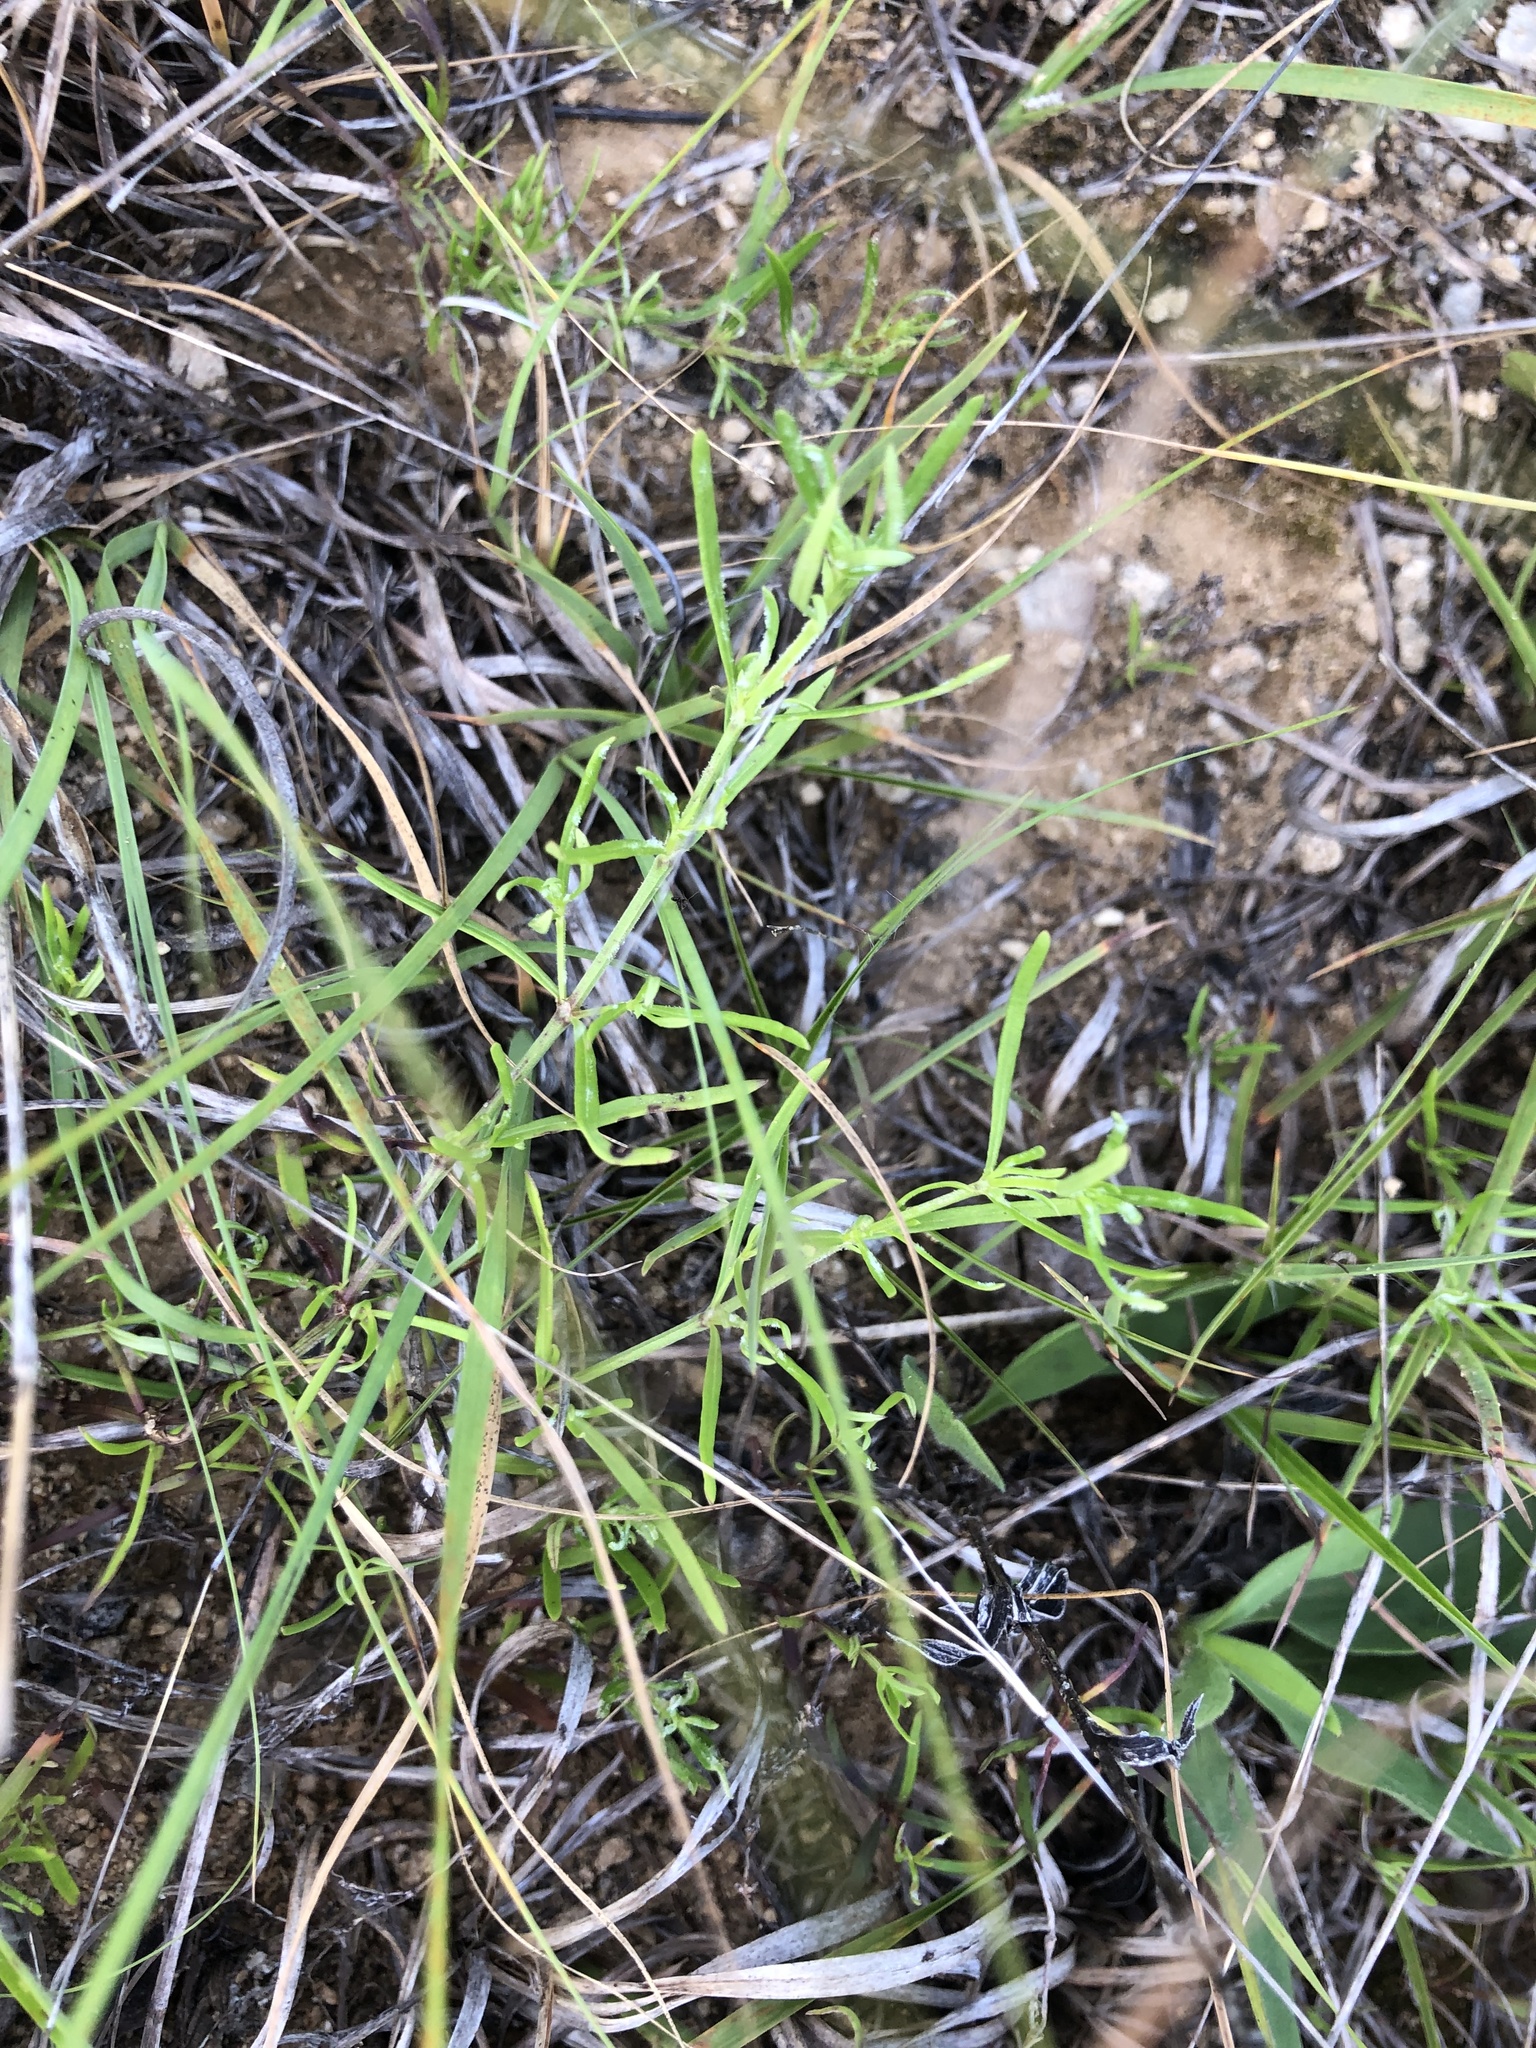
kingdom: Plantae
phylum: Tracheophyta
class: Magnoliopsida
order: Gentianales
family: Rubiaceae
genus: Stenaria
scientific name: Stenaria nigricans
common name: Diamondflowers
